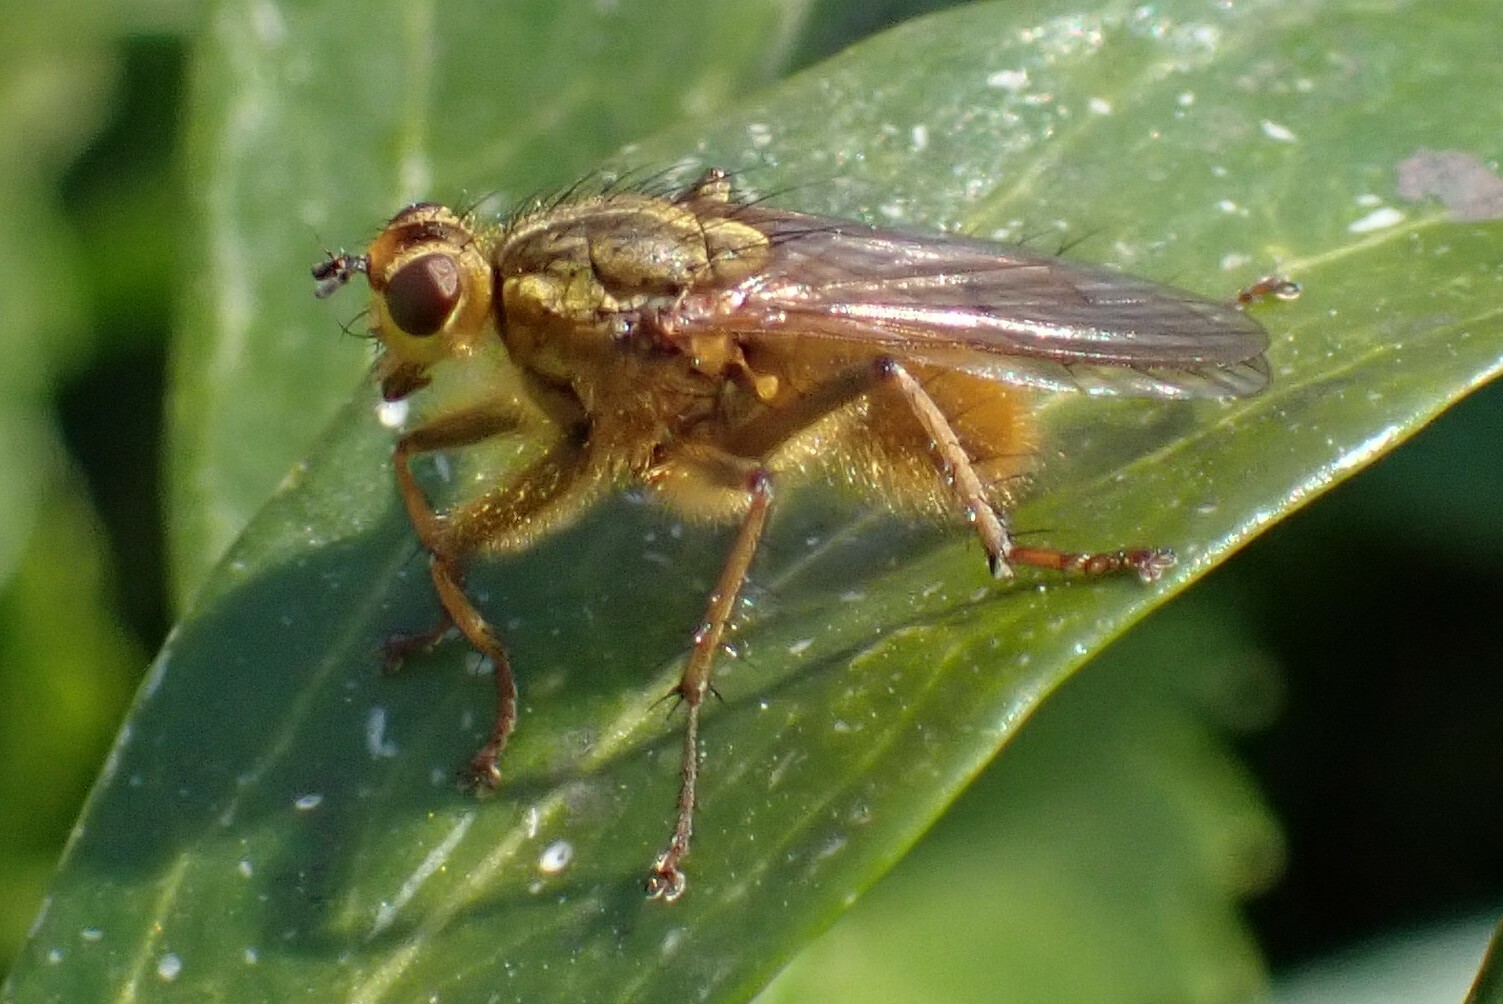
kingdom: Animalia
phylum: Arthropoda
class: Insecta
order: Diptera
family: Scathophagidae
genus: Scathophaga
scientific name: Scathophaga stercoraria
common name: Yellow dung fly
